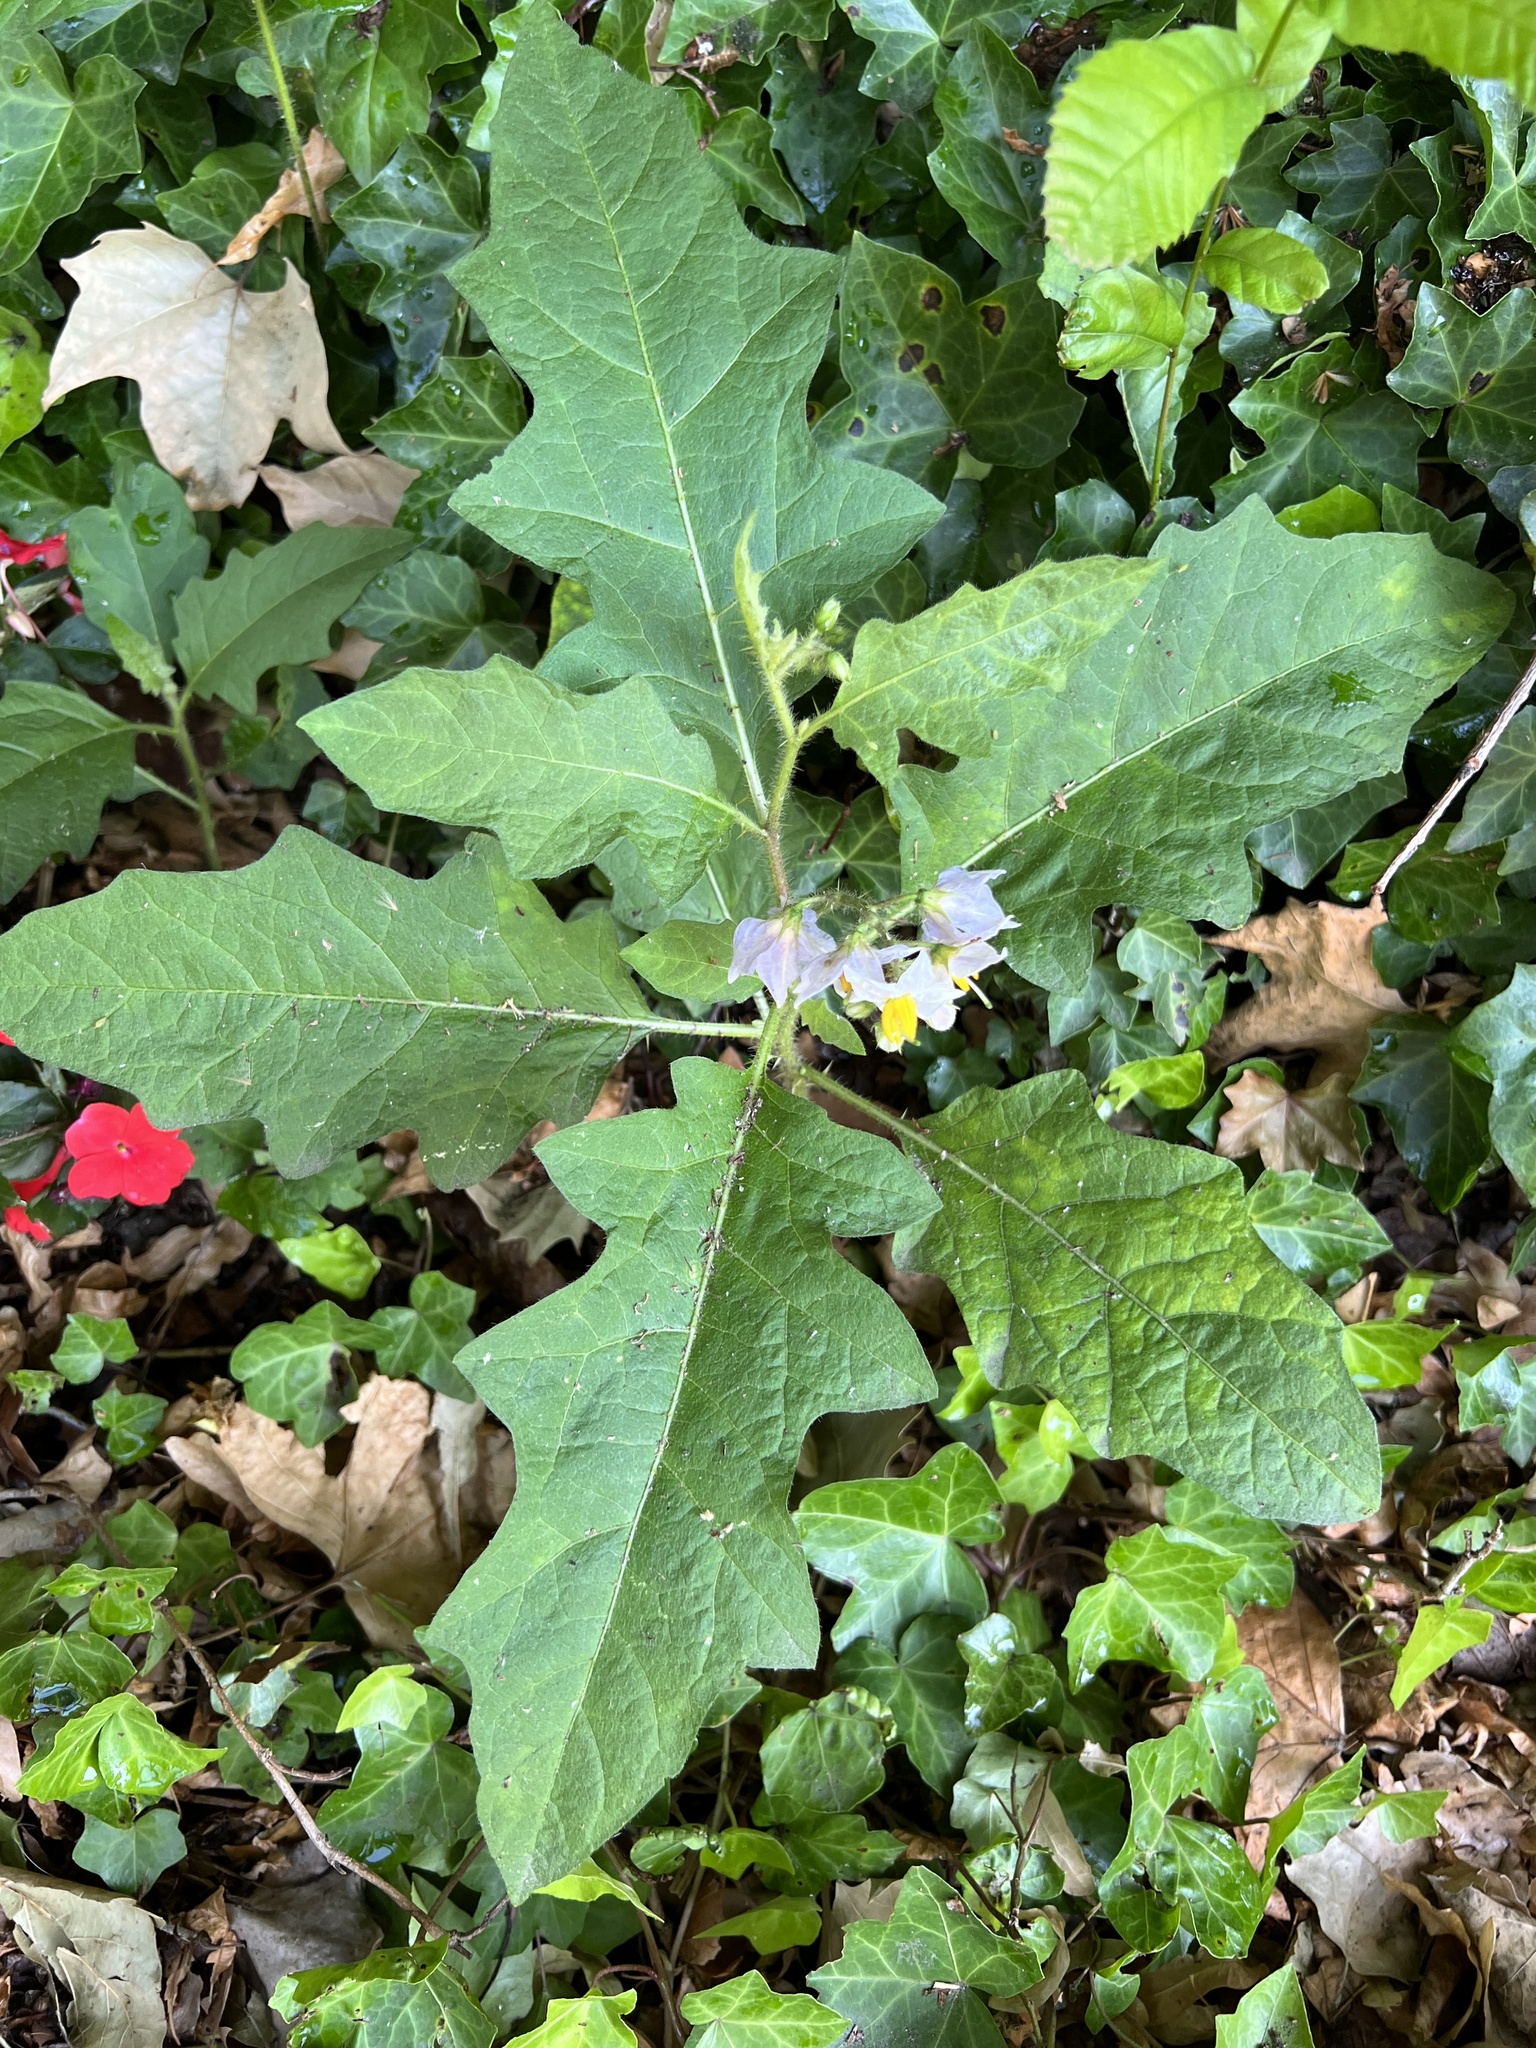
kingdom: Plantae
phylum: Tracheophyta
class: Magnoliopsida
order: Solanales
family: Solanaceae
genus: Solanum
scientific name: Solanum carolinense
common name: Horse-nettle
